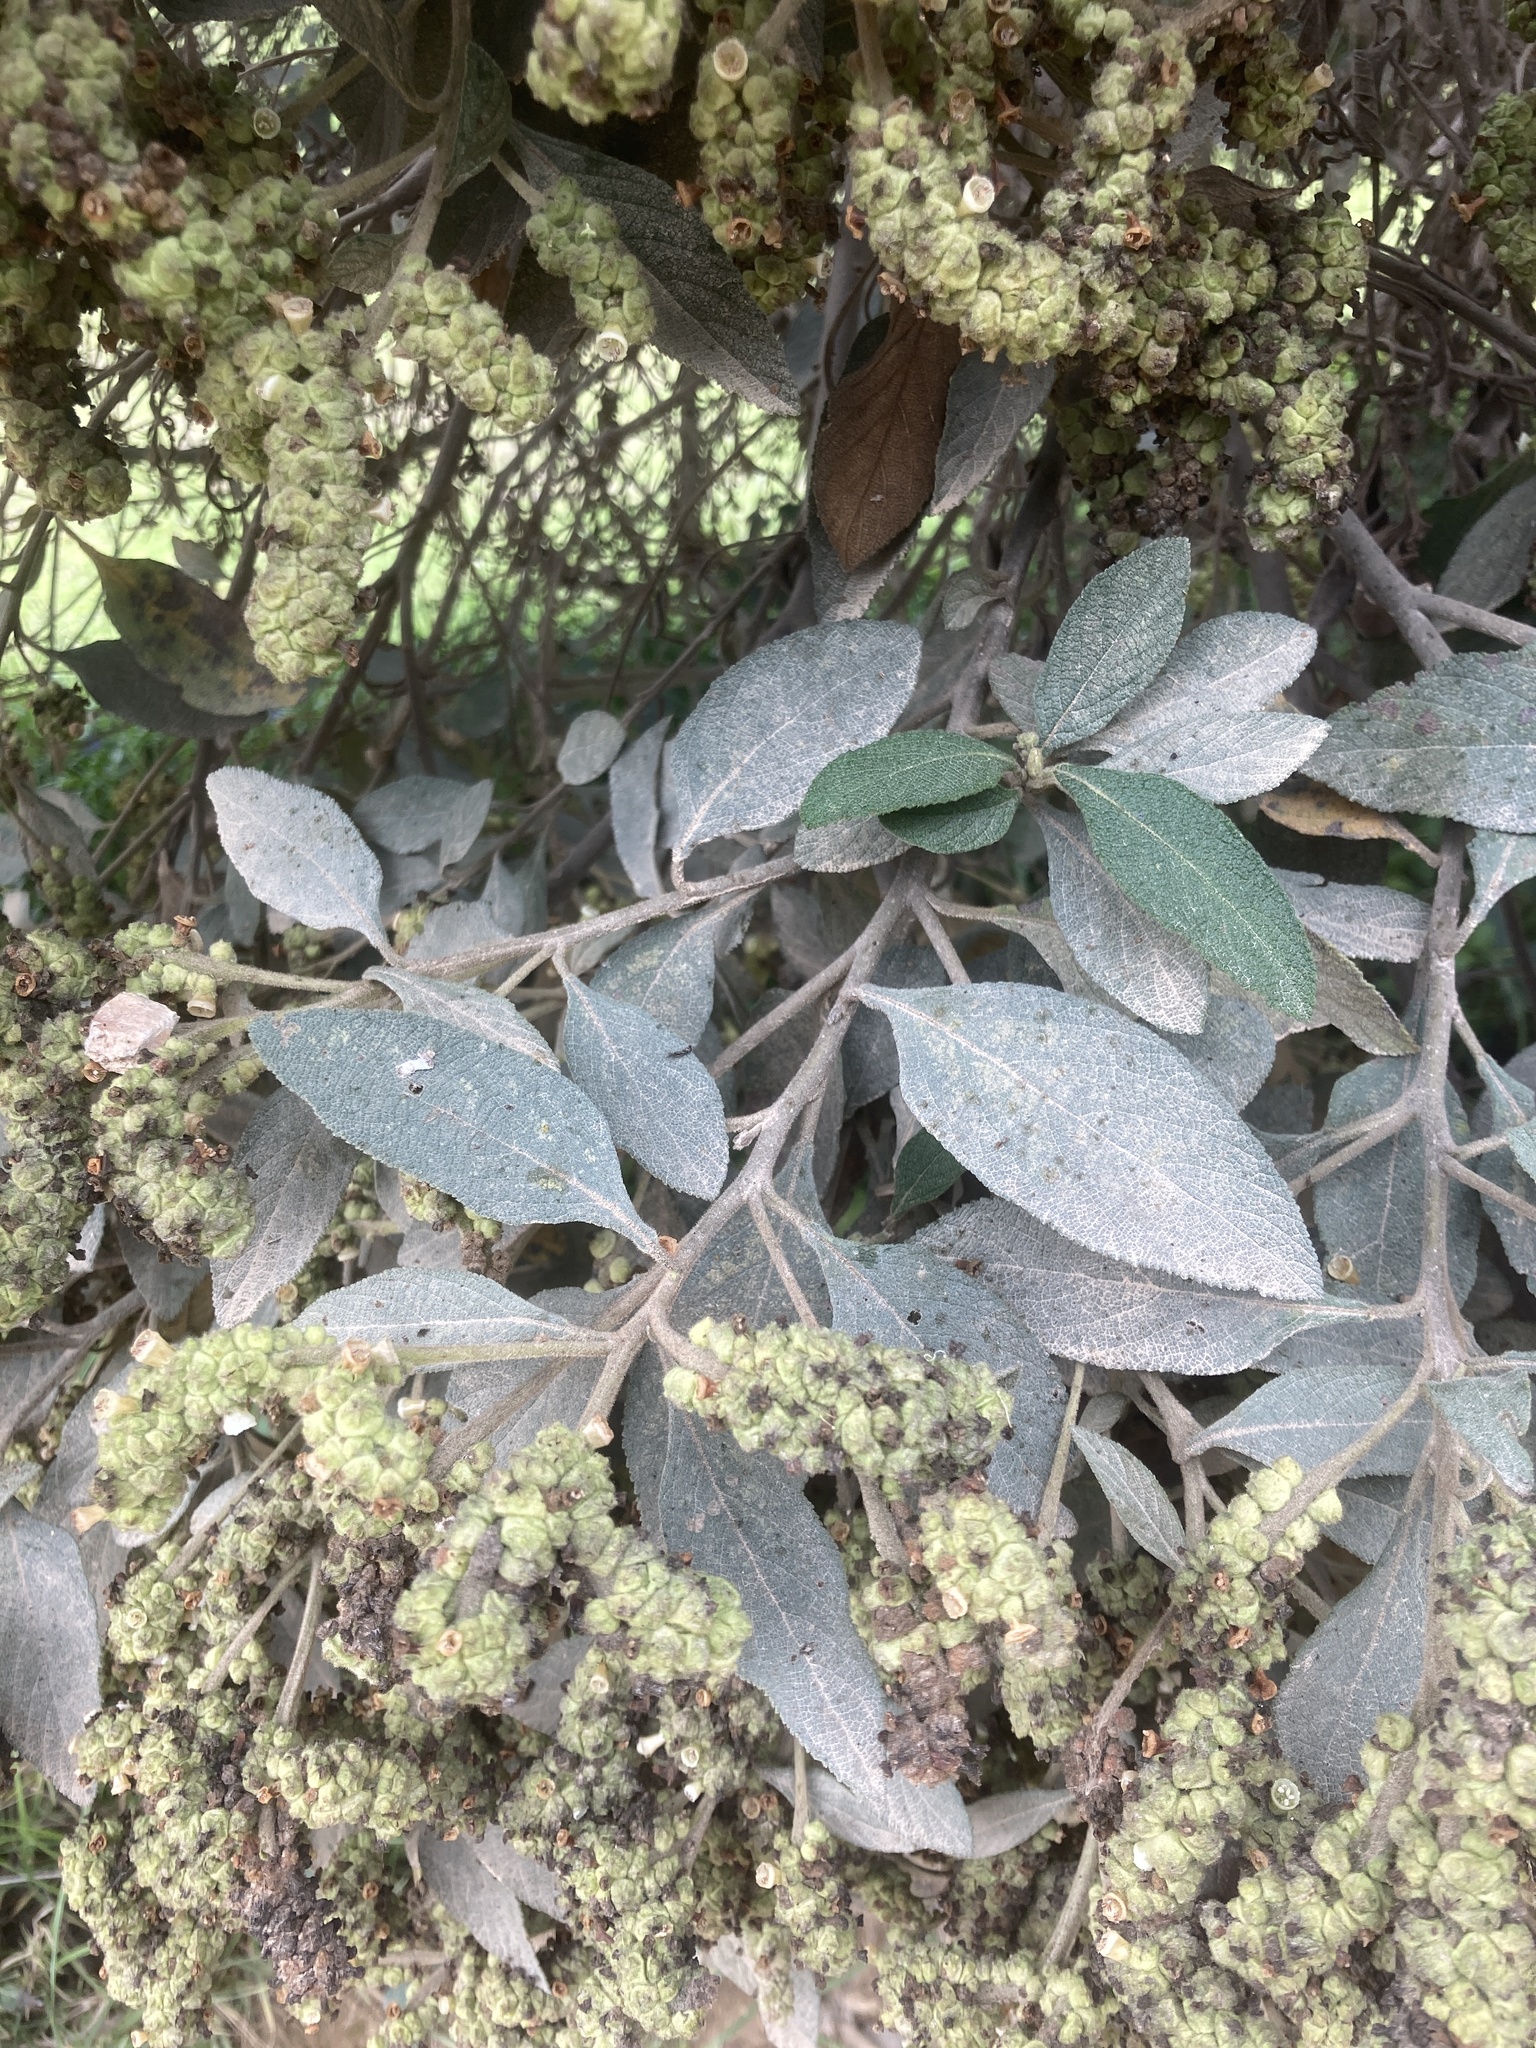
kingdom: Plantae
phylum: Tracheophyta
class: Magnoliopsida
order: Boraginales
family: Cordiaceae
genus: Varronia
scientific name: Varronia cylindrostachya
